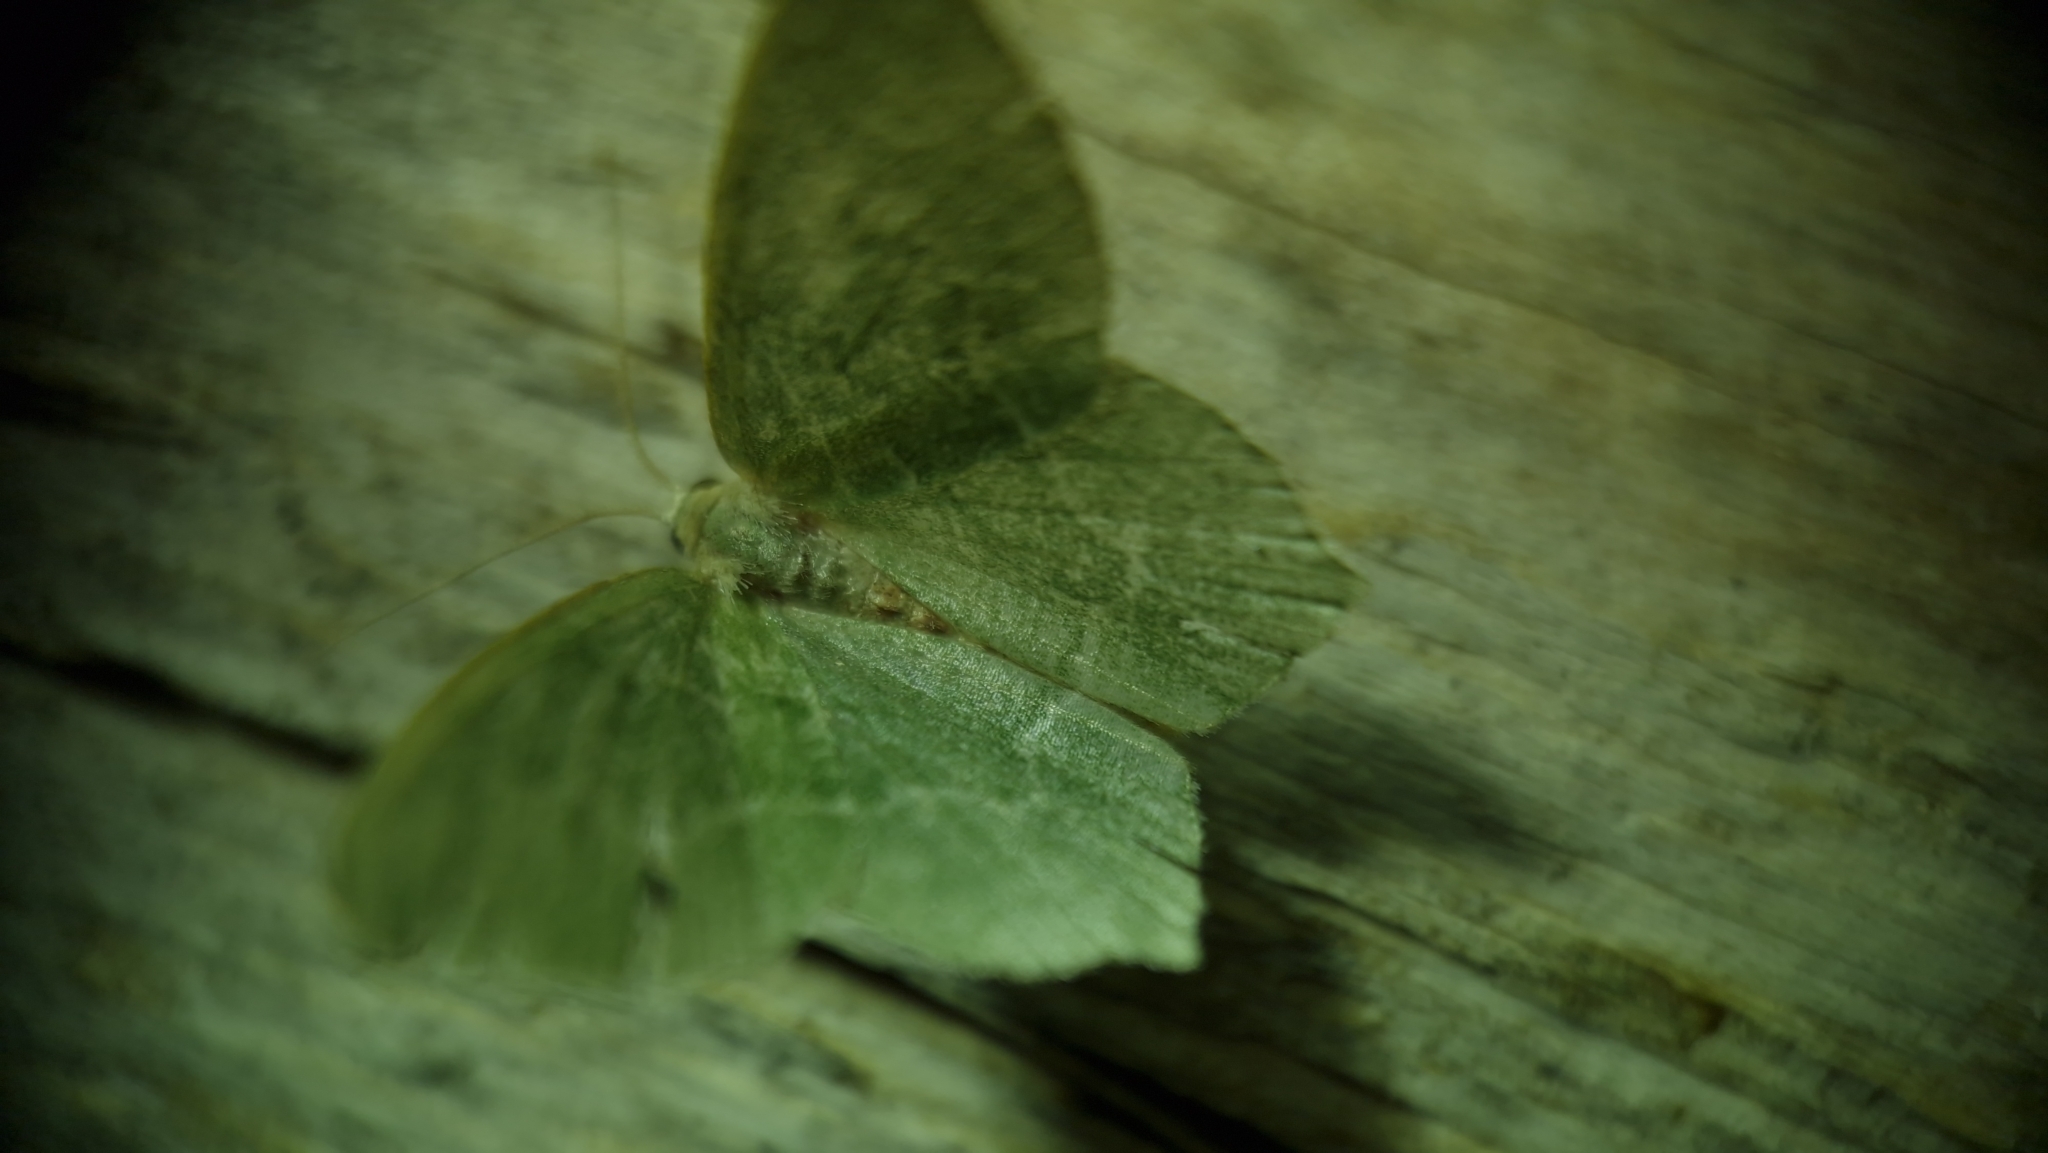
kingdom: Animalia
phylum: Arthropoda
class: Insecta
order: Lepidoptera
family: Geometridae
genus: Hemithea
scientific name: Hemithea aestivaria
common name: Common emerald
